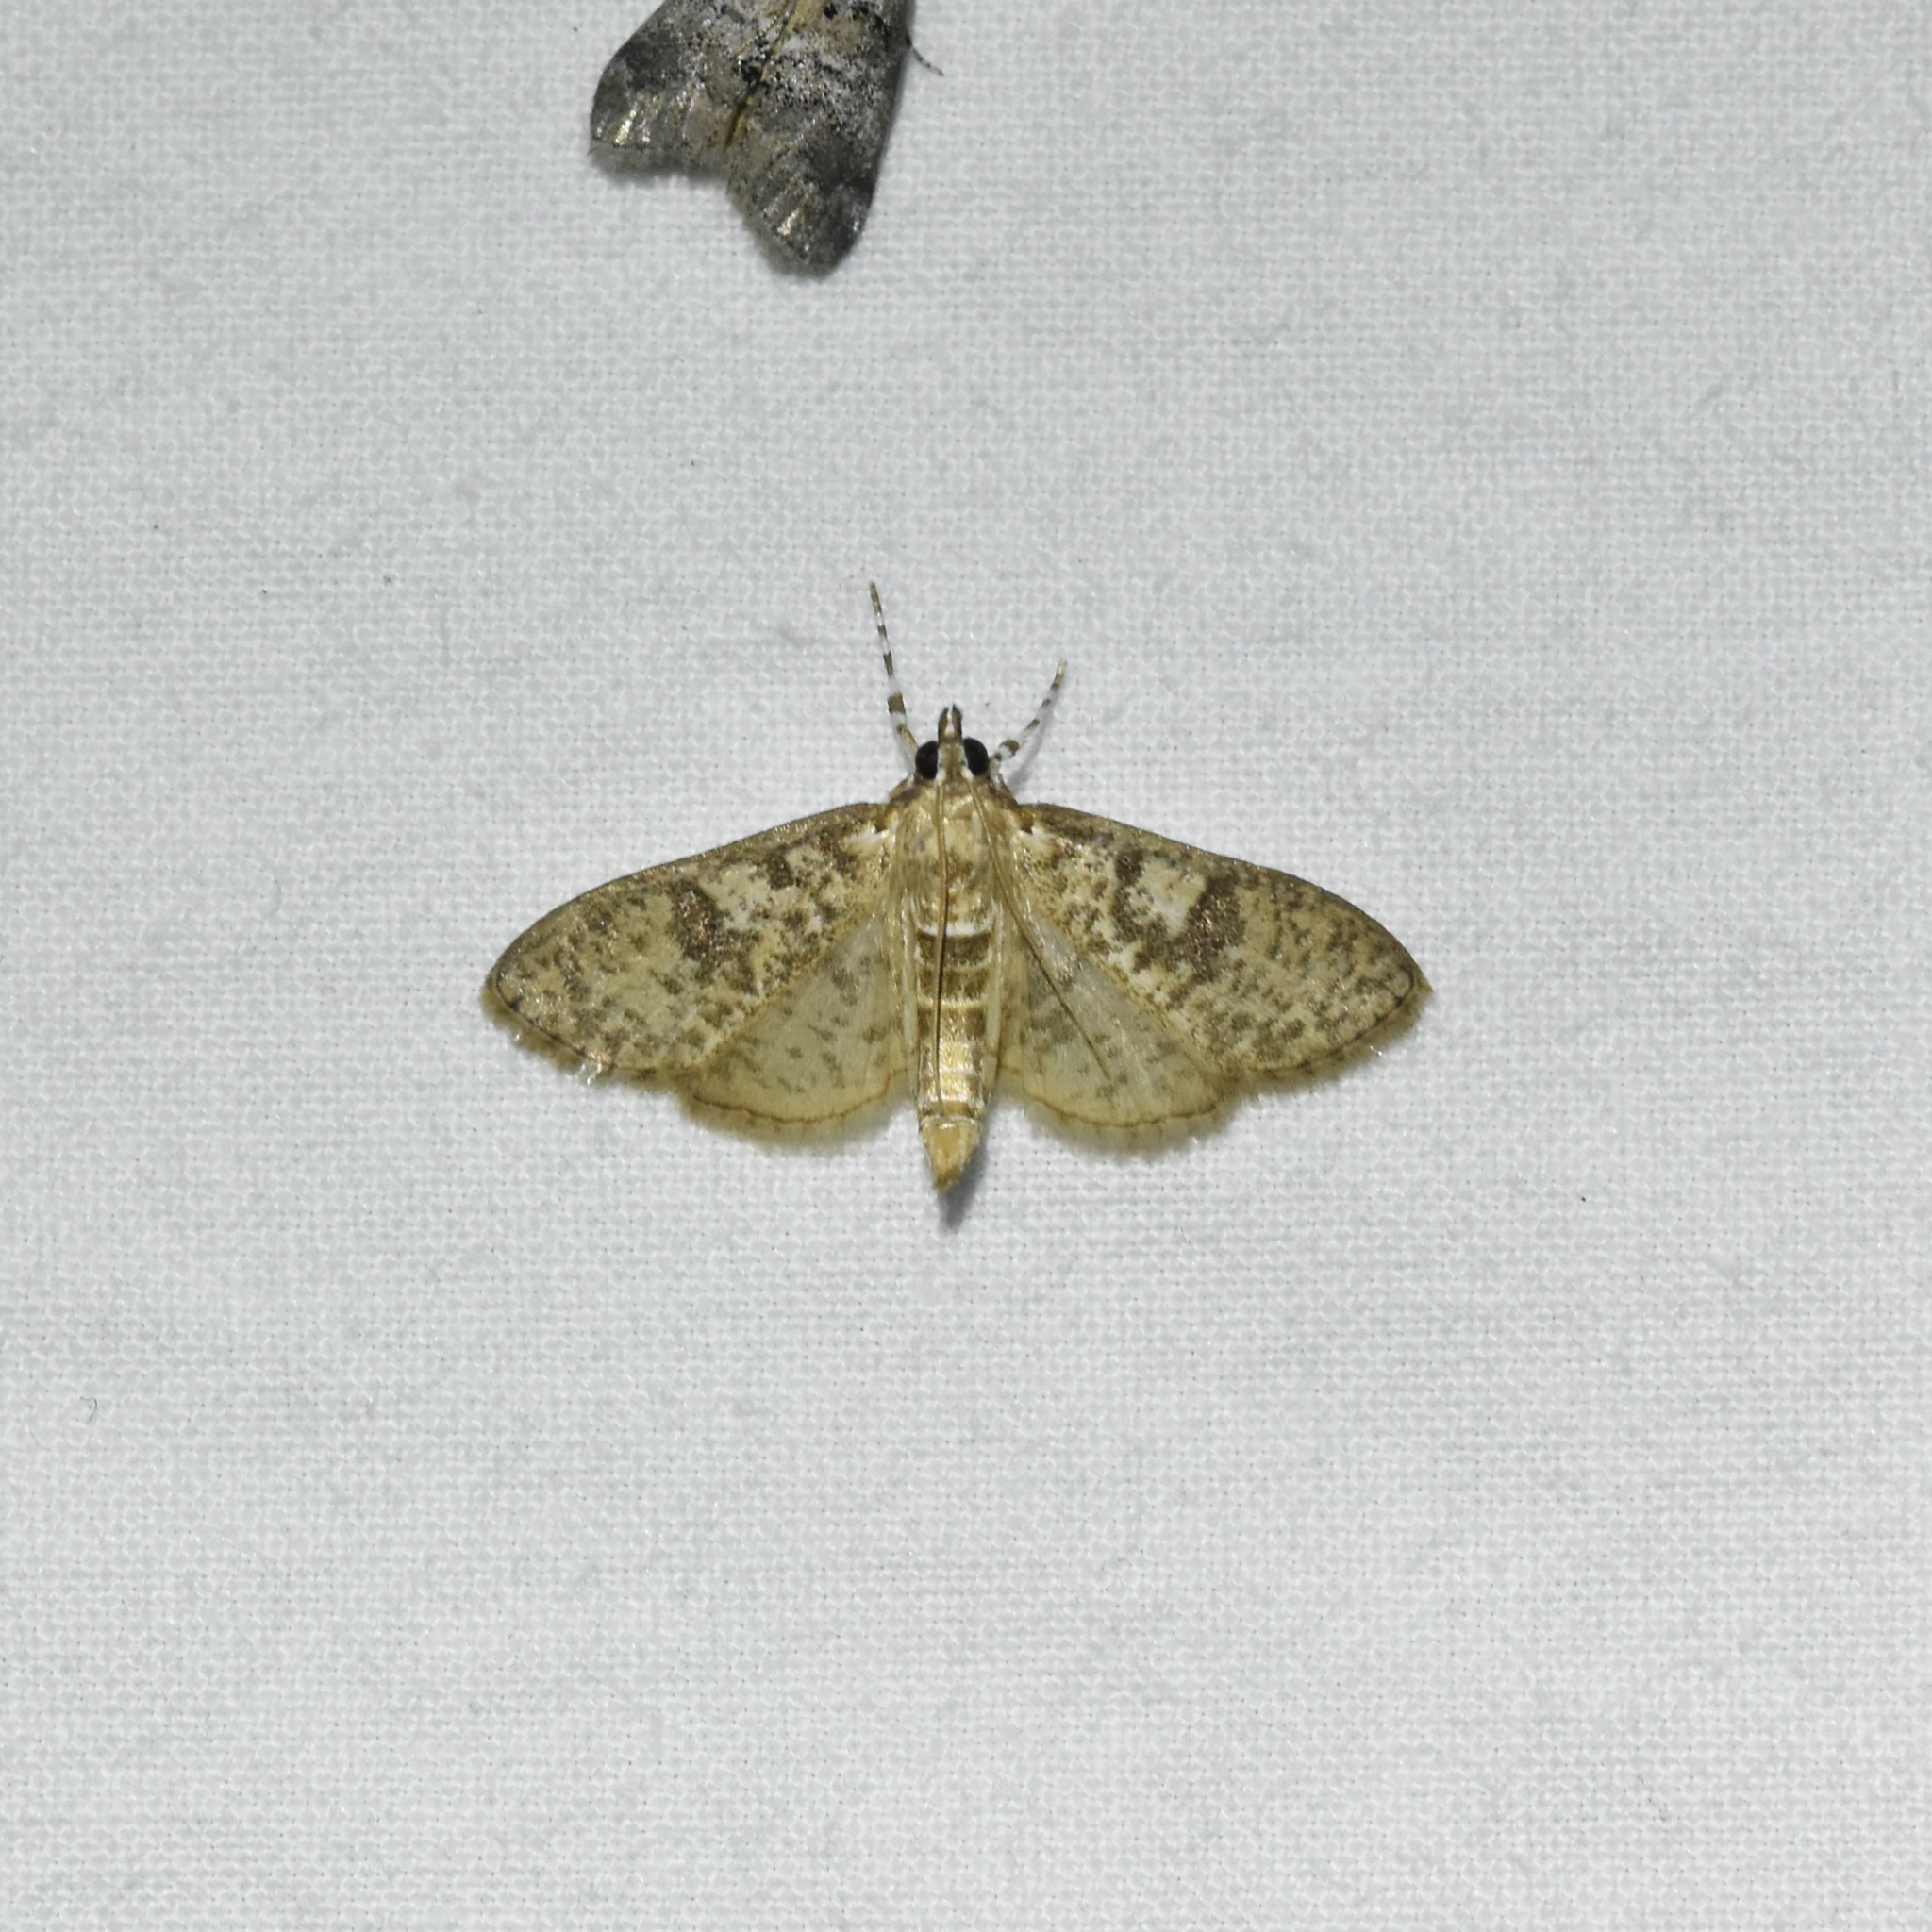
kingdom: Animalia
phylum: Arthropoda
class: Insecta
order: Lepidoptera
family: Crambidae
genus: Palpita
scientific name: Palpita freemanalis
